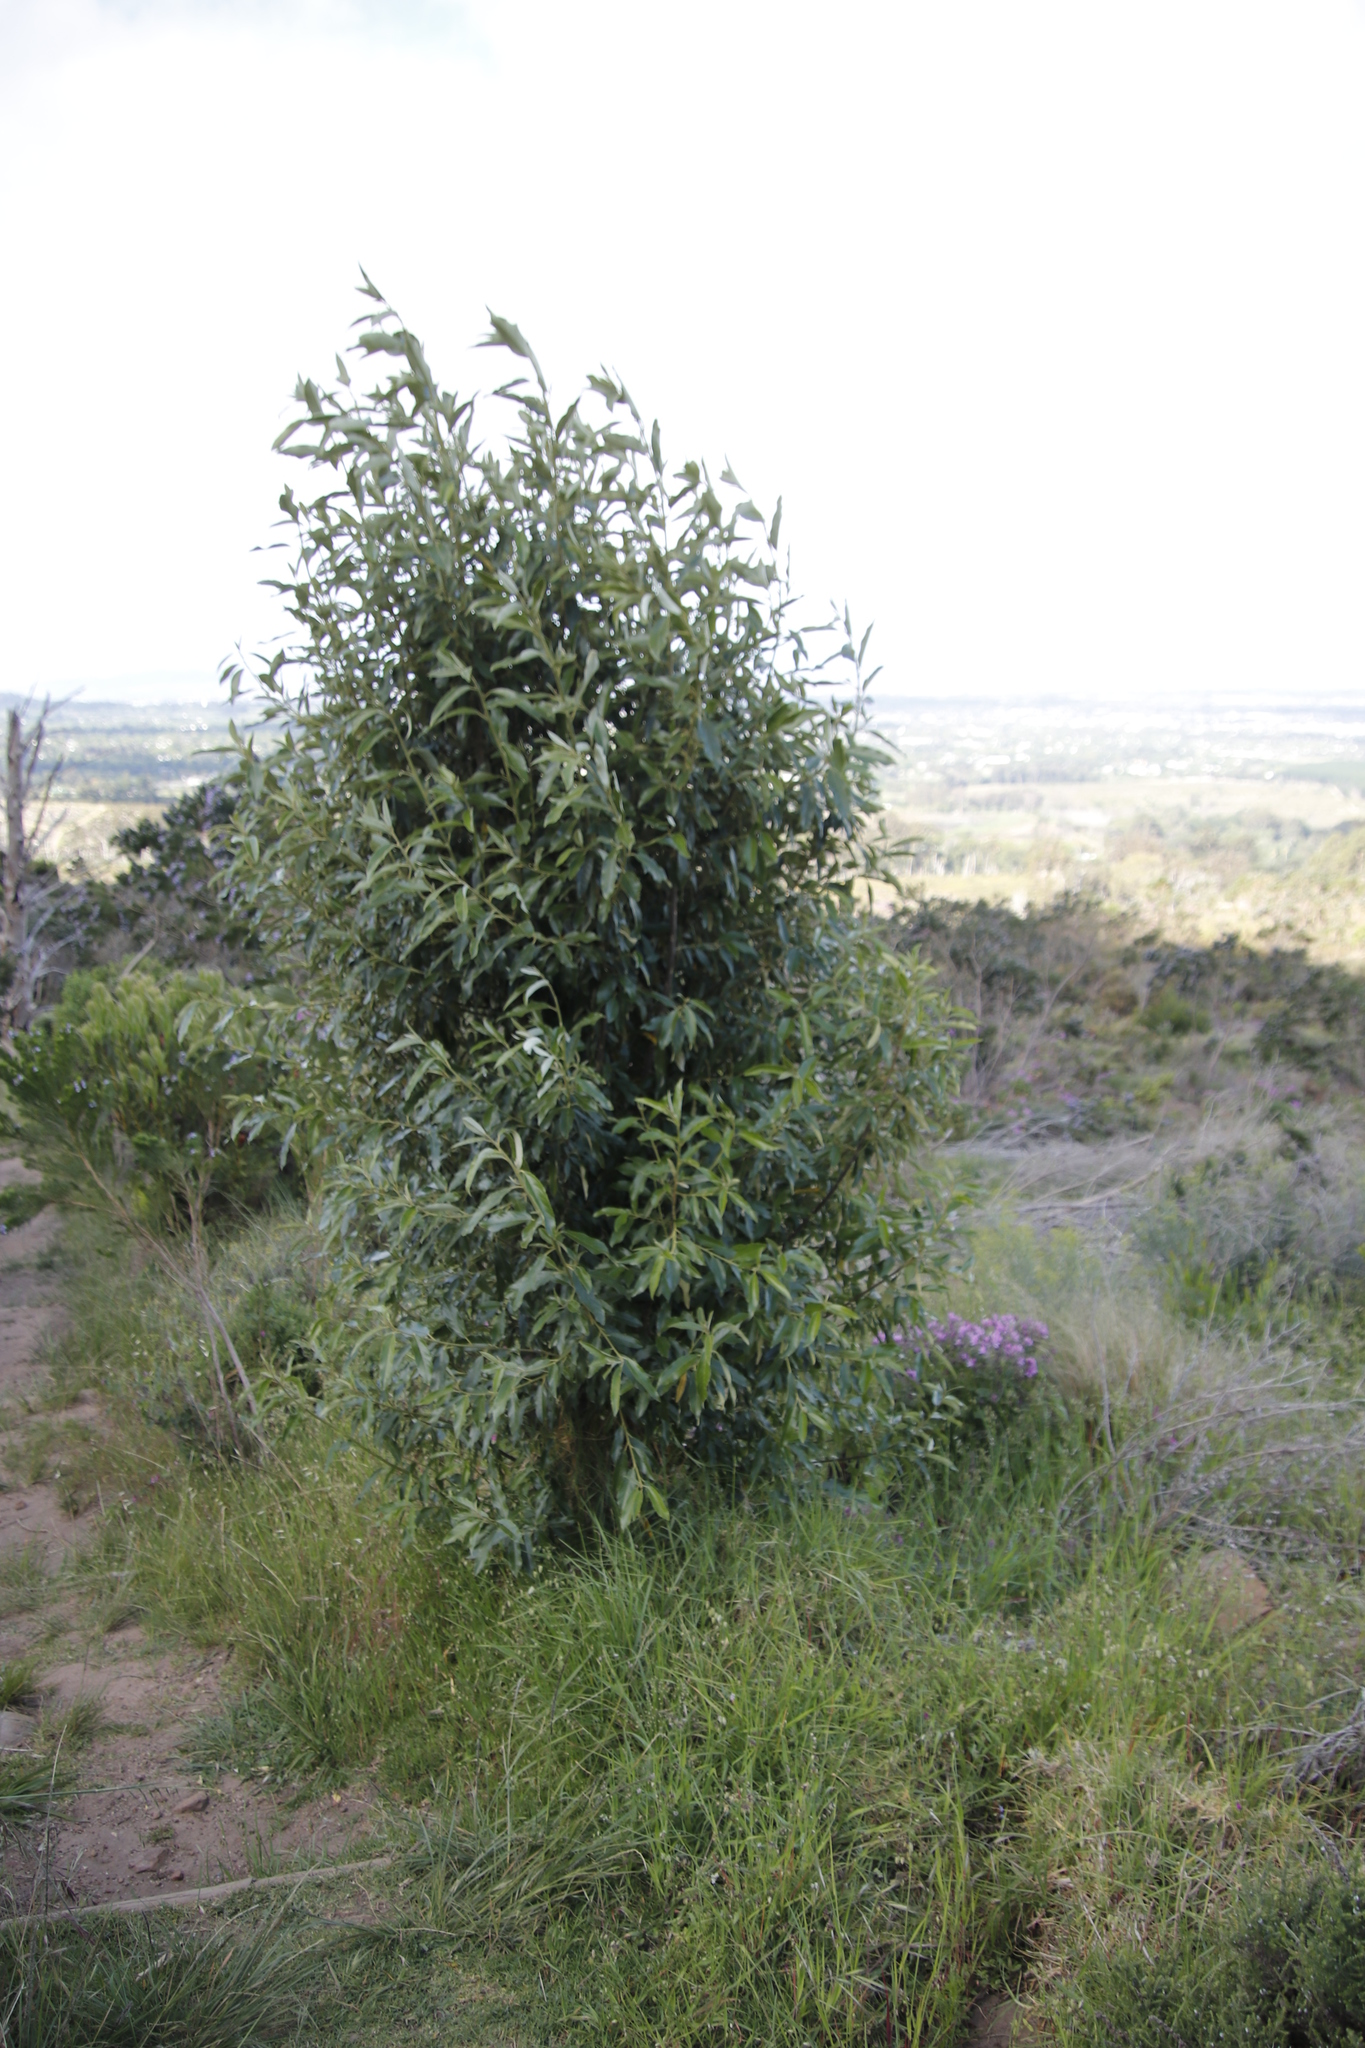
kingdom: Plantae
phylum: Tracheophyta
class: Magnoliopsida
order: Malpighiales
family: Achariaceae
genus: Kiggelaria
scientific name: Kiggelaria africana
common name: Wild peach
